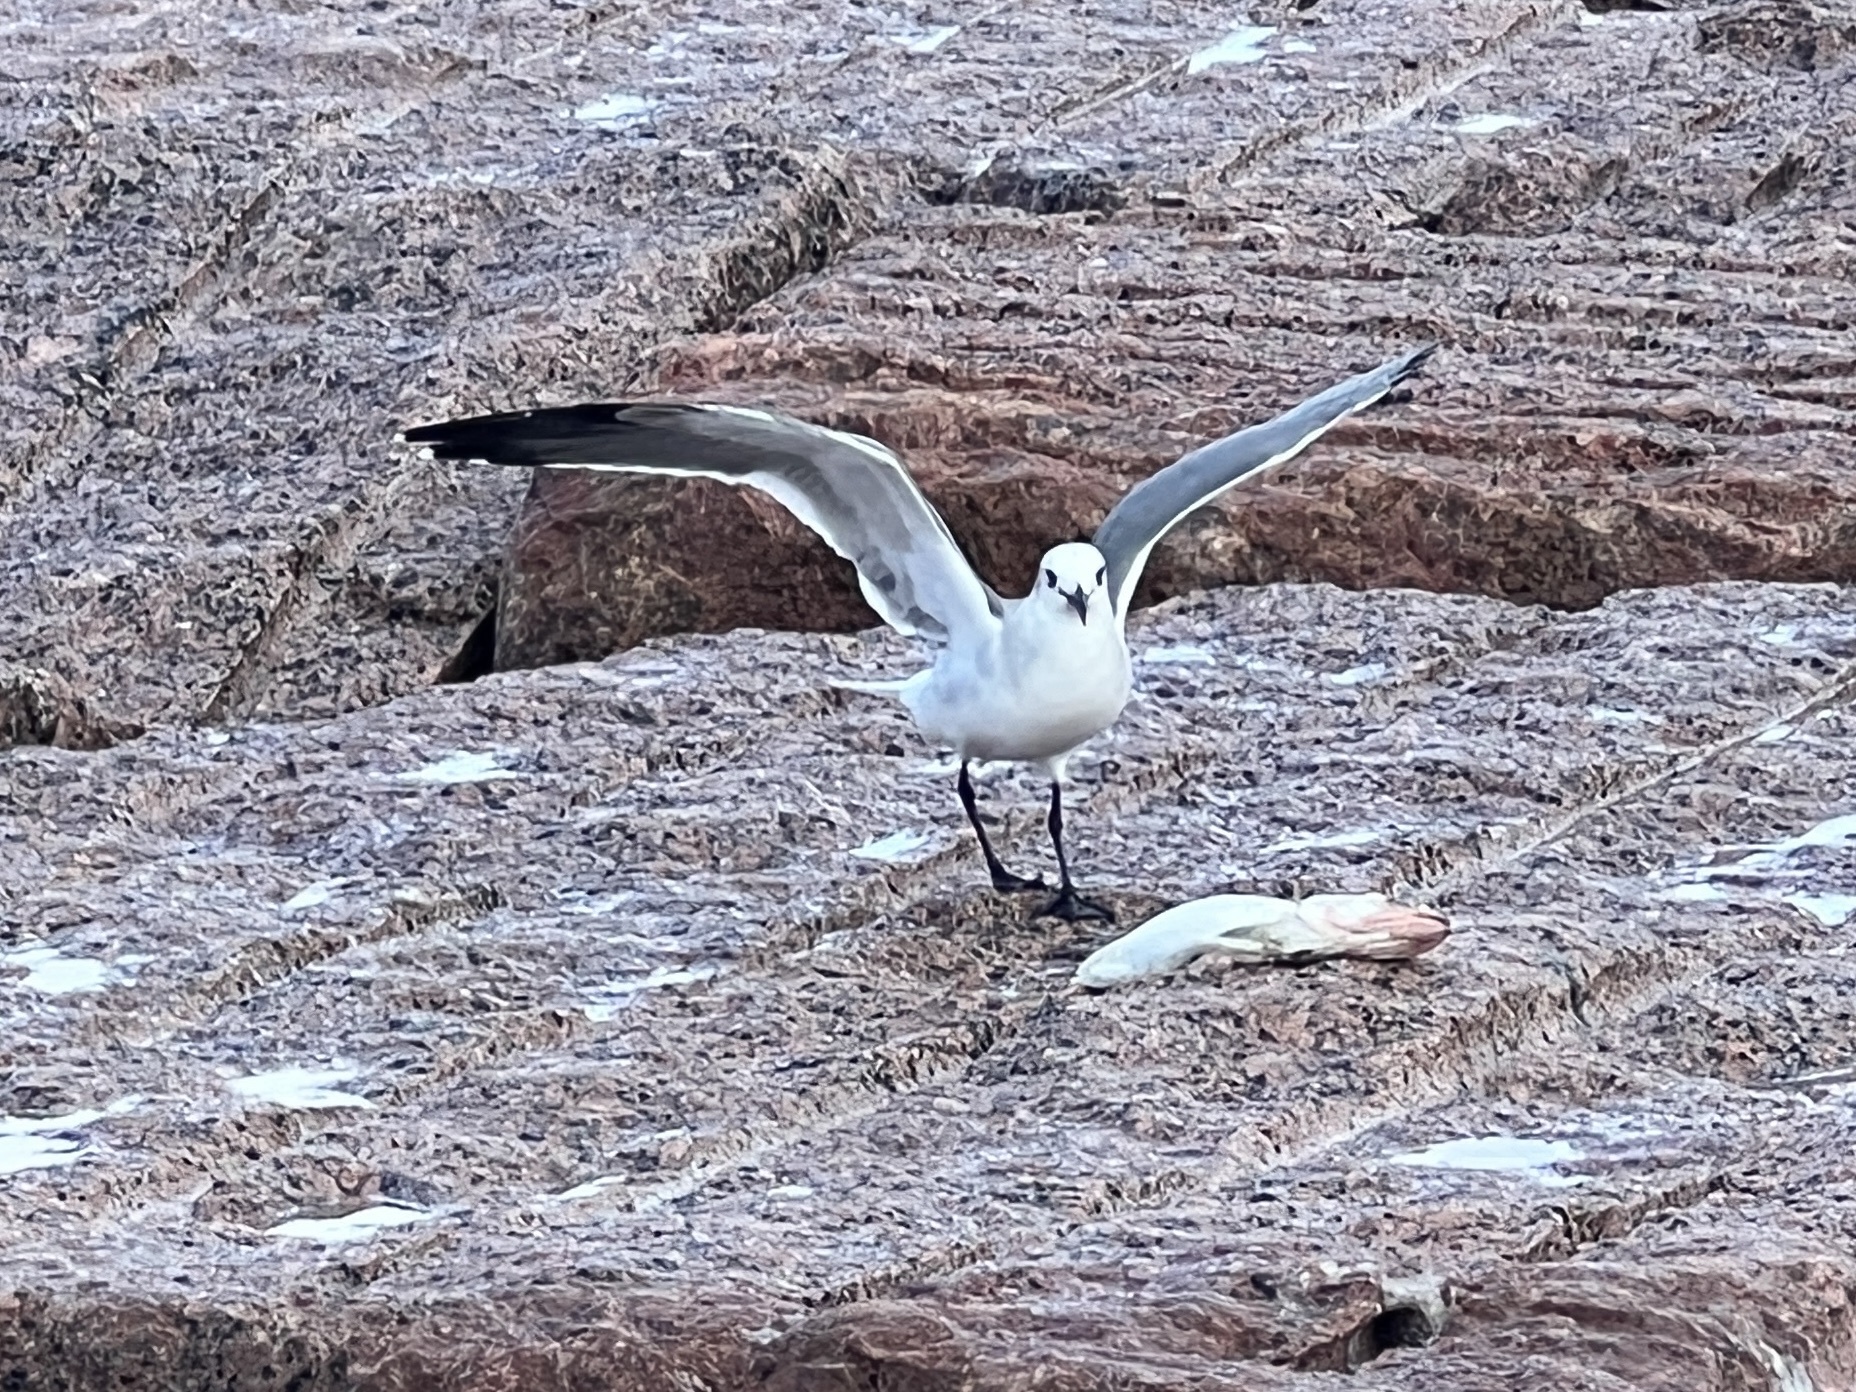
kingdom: Animalia
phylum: Chordata
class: Aves
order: Charadriiformes
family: Laridae
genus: Leucophaeus
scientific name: Leucophaeus atricilla
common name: Laughing gull
